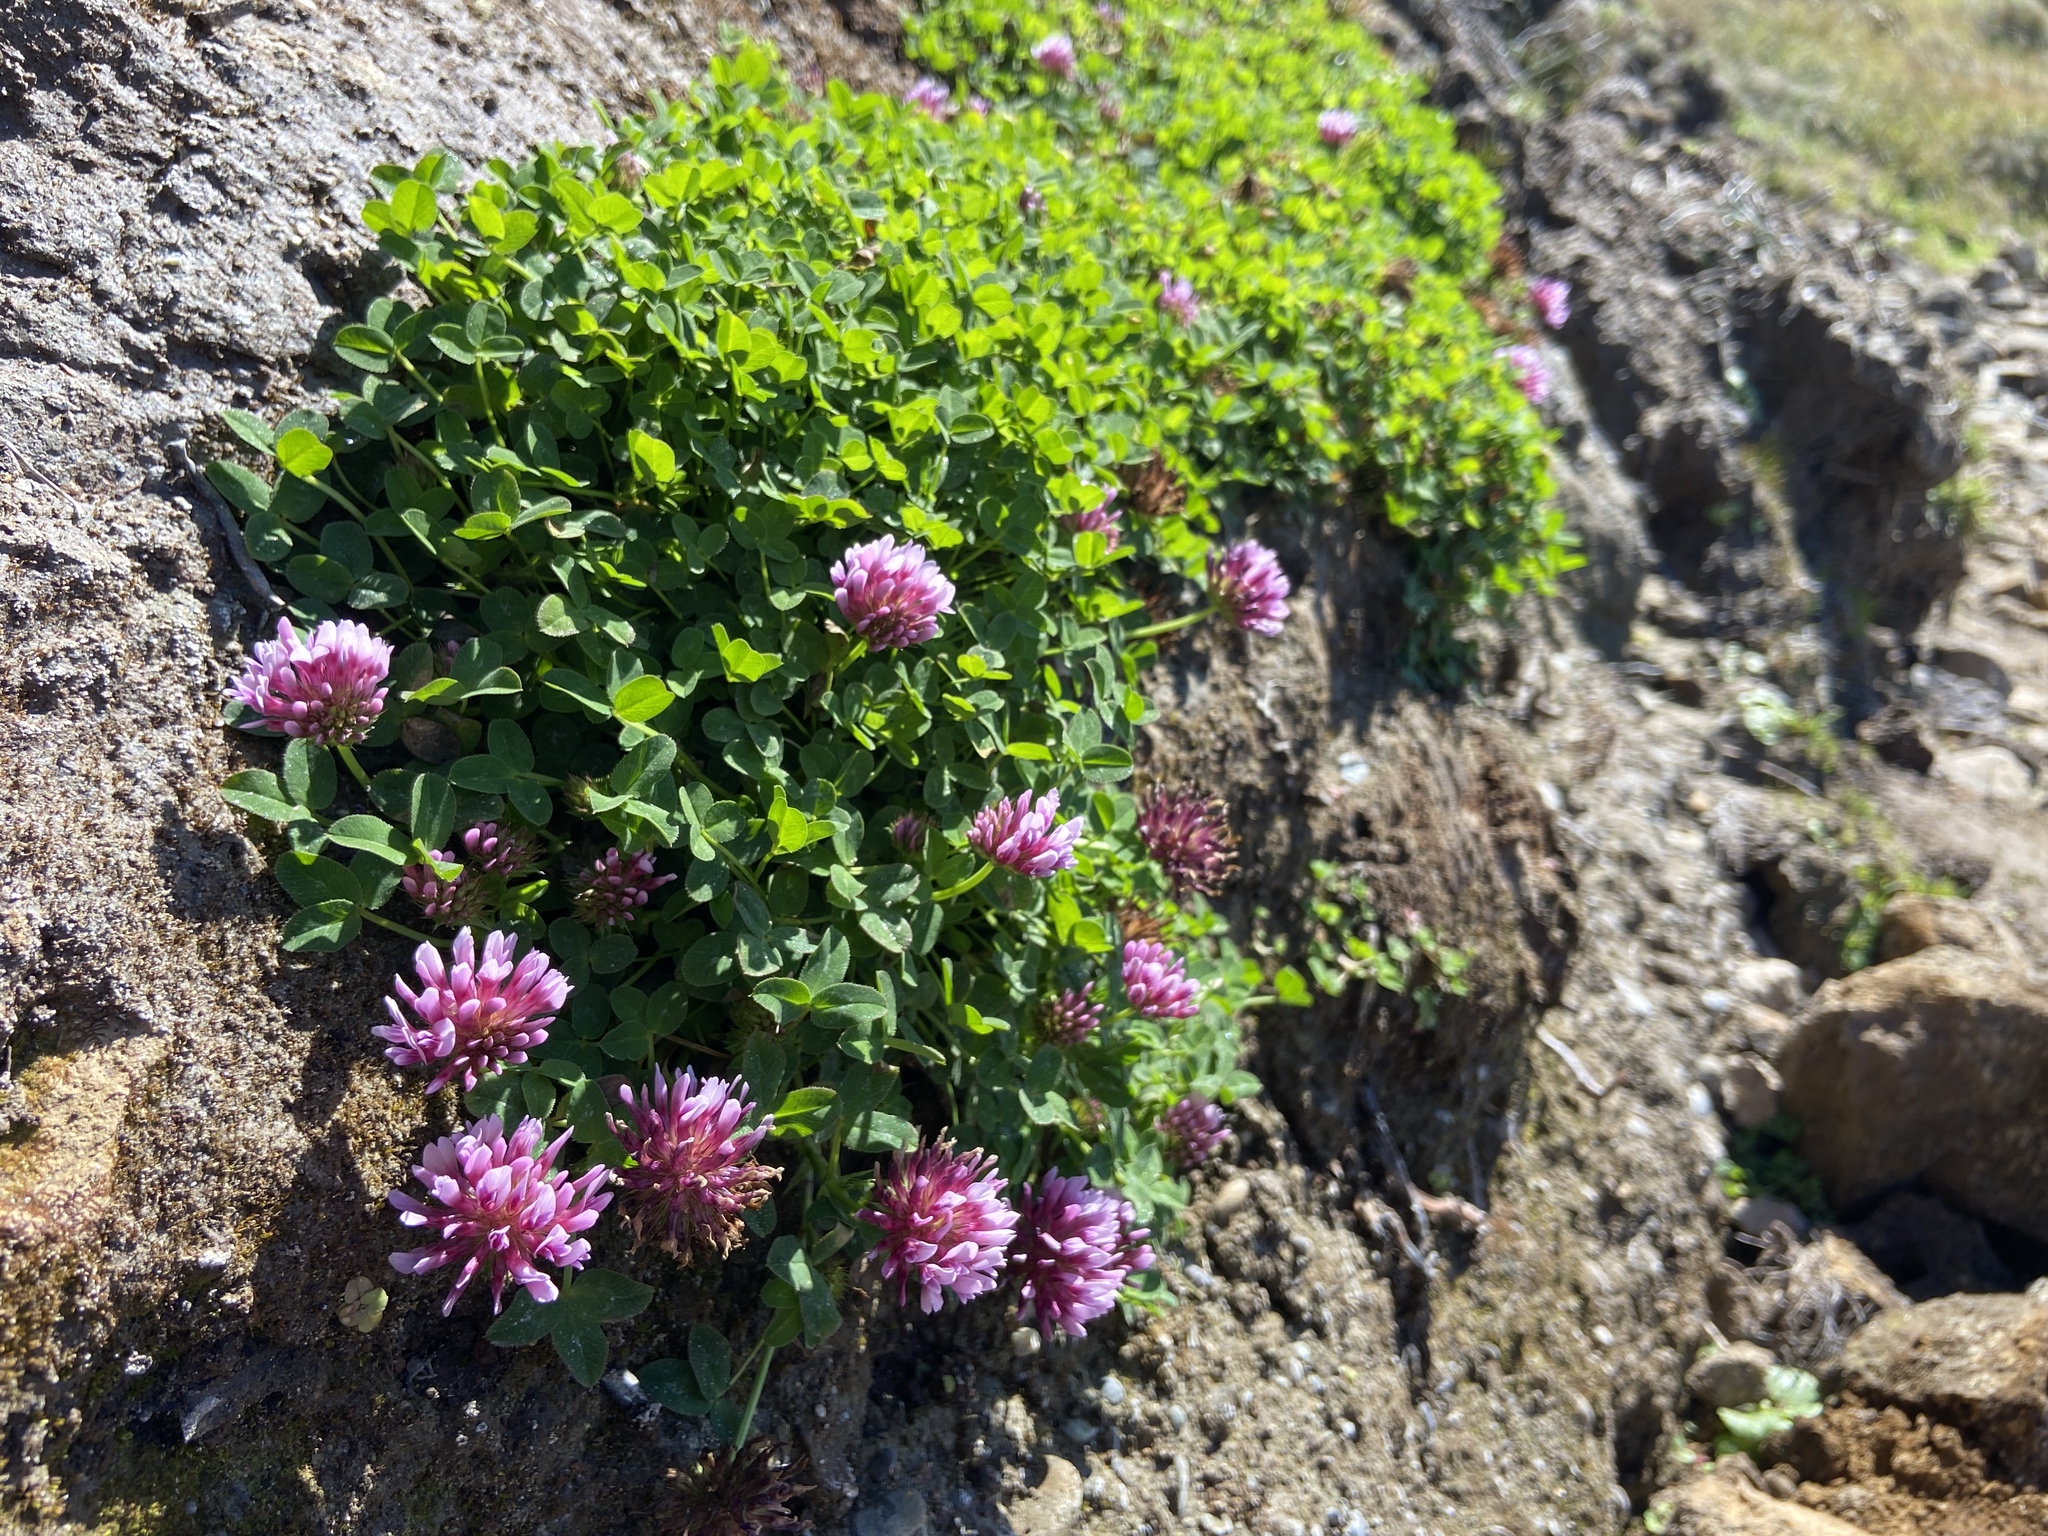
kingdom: Plantae
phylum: Tracheophyta
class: Magnoliopsida
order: Fabales
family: Fabaceae
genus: Trifolium
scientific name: Trifolium wormskioldii
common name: Springbank clover
